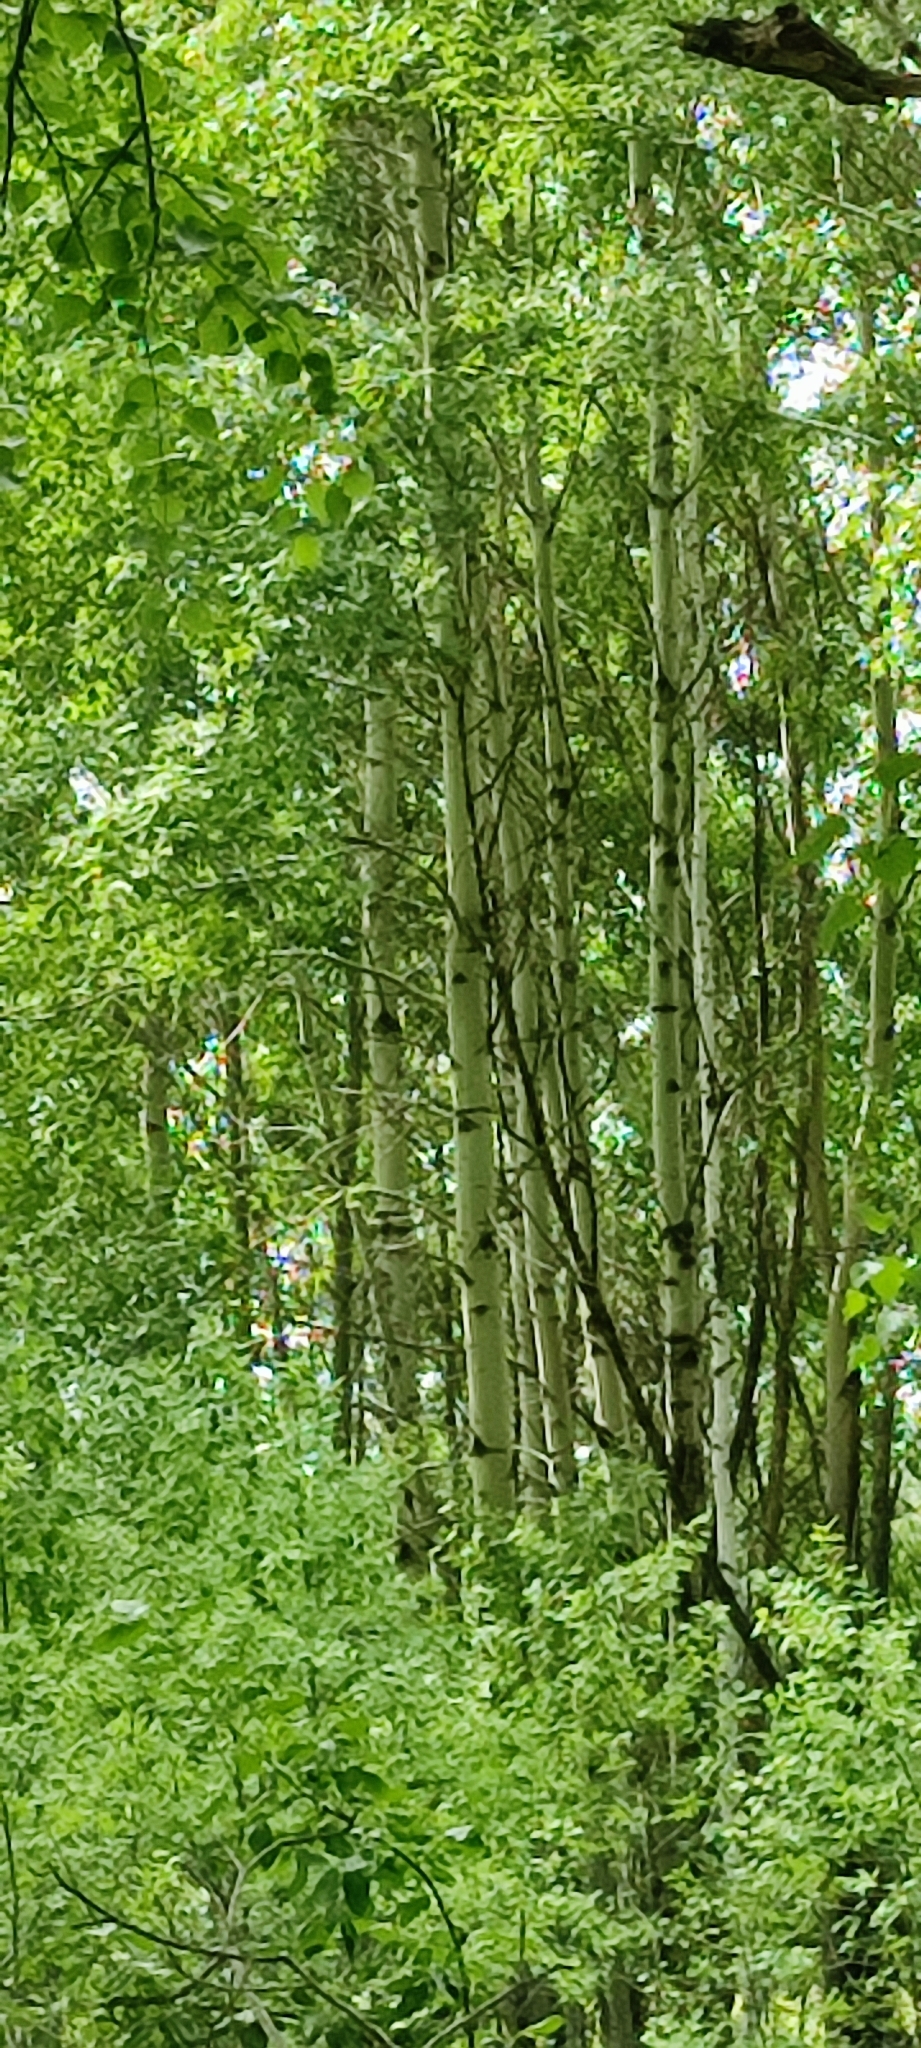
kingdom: Plantae
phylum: Tracheophyta
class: Magnoliopsida
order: Malpighiales
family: Salicaceae
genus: Populus
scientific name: Populus tremula
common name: European aspen
